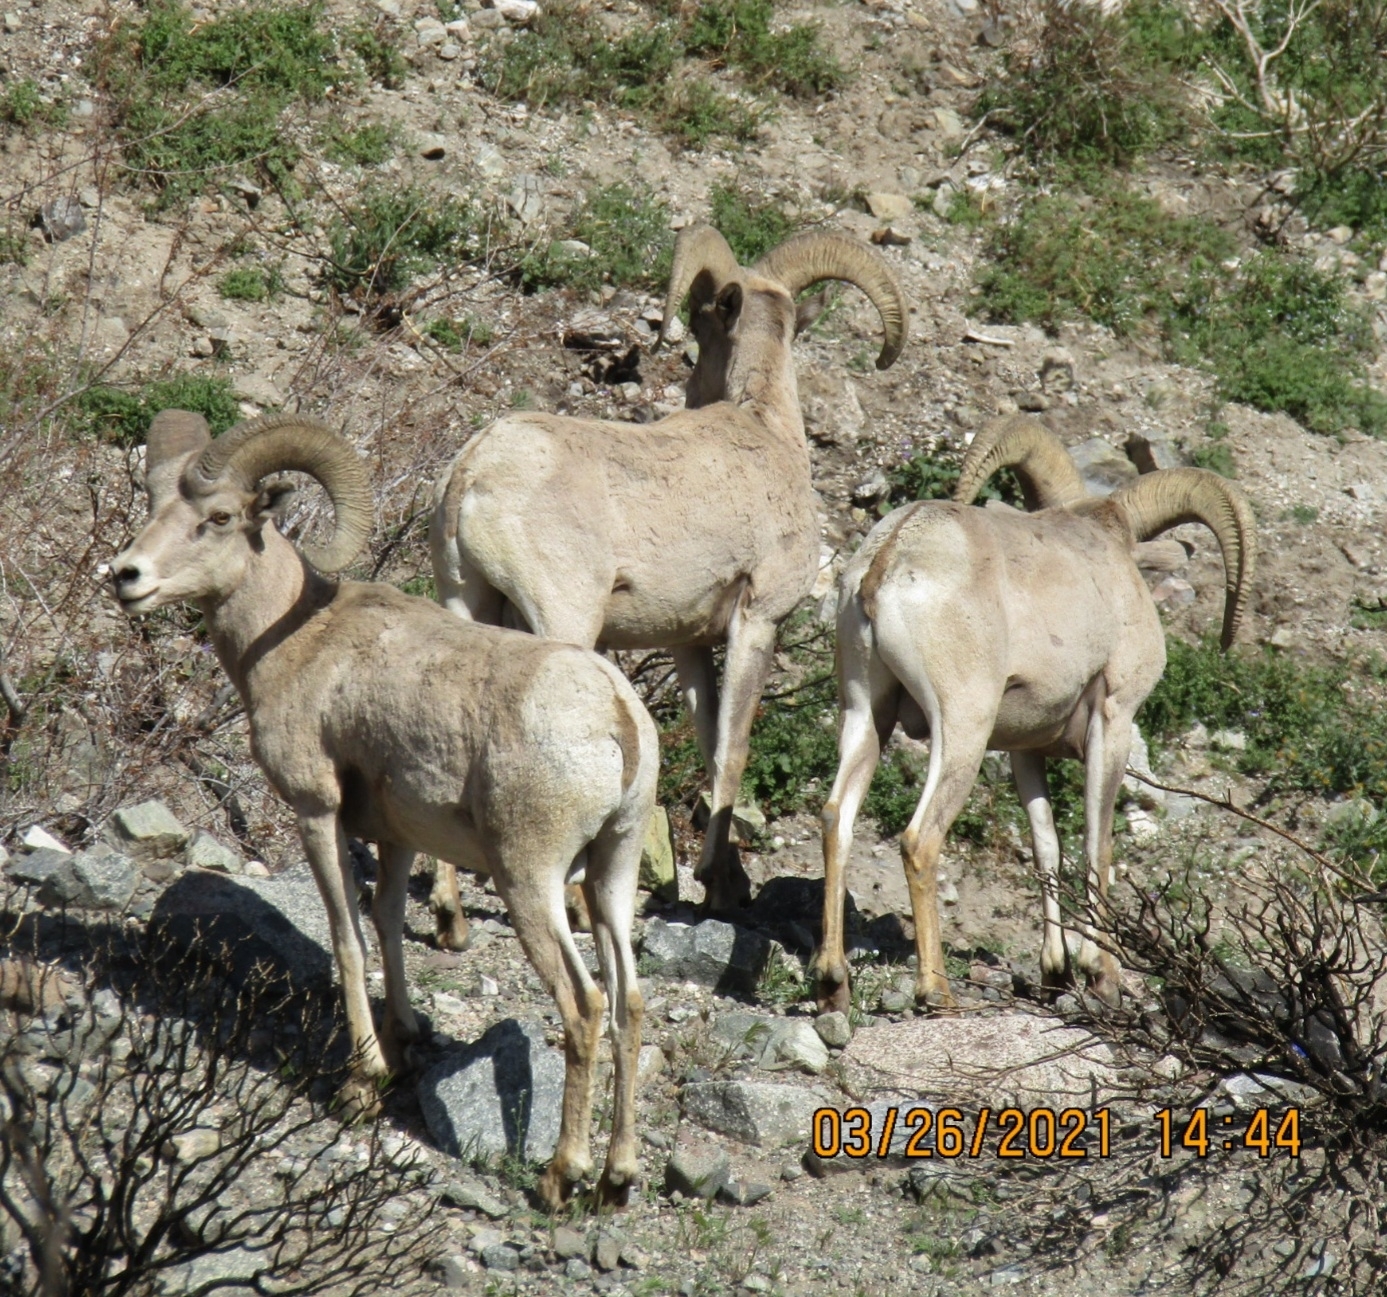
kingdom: Animalia
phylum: Chordata
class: Mammalia
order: Artiodactyla
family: Bovidae
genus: Ovis
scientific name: Ovis canadensis
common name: Bighorn sheep
